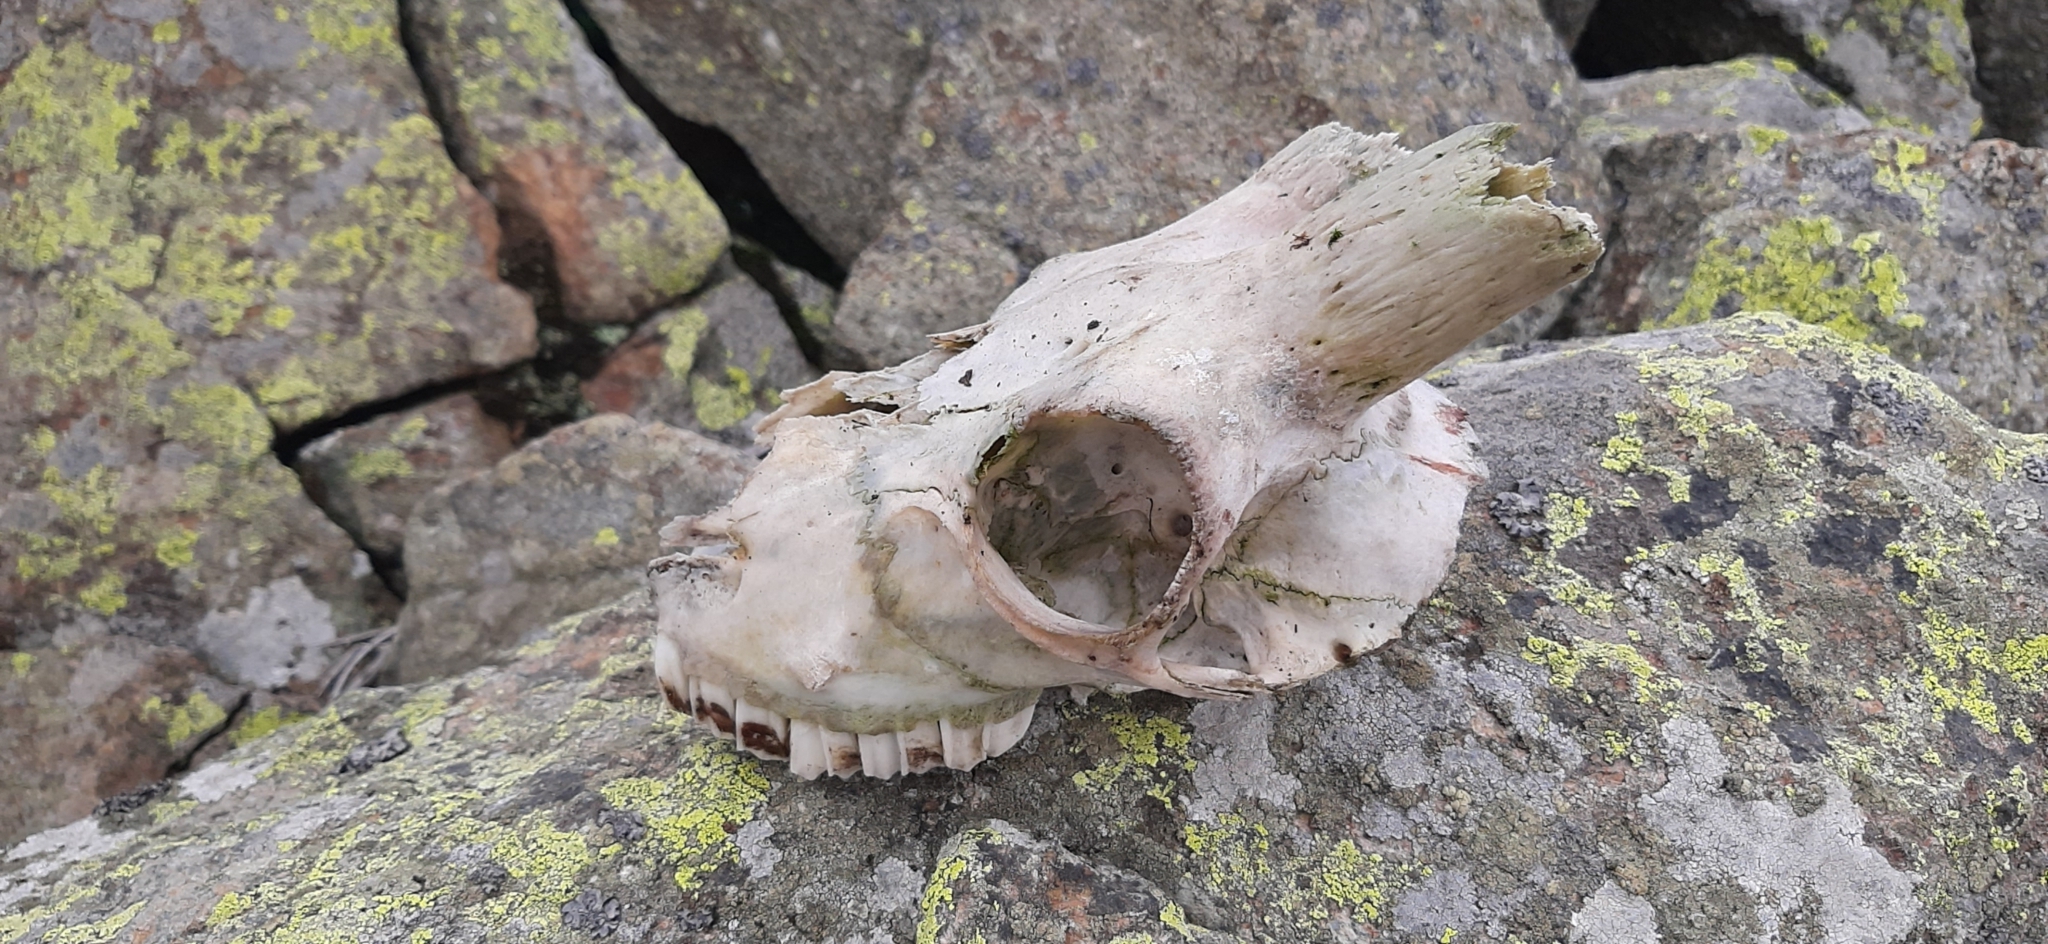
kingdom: Animalia
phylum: Chordata
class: Mammalia
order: Artiodactyla
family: Bovidae
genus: Capra
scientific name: Capra hircus
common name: Domestic goat
